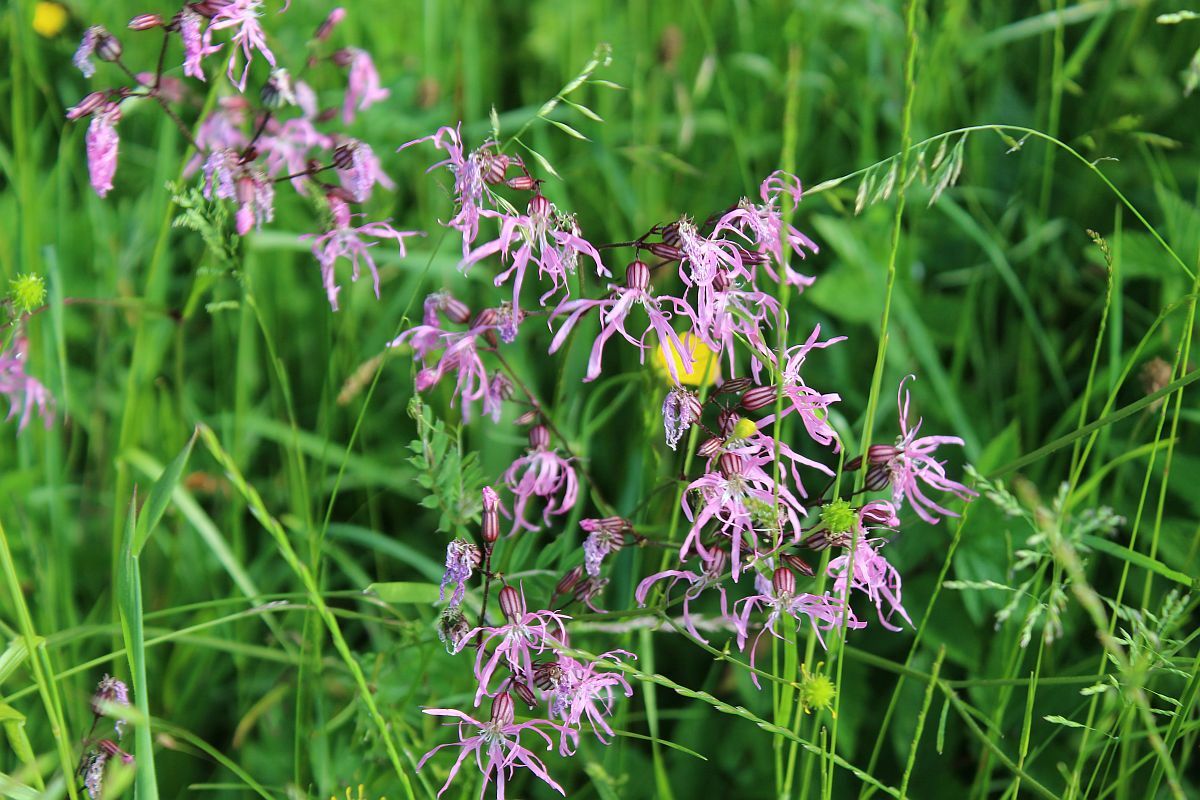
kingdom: Plantae
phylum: Tracheophyta
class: Magnoliopsida
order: Caryophyllales
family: Caryophyllaceae
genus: Silene
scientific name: Silene flos-cuculi
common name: Ragged-robin
